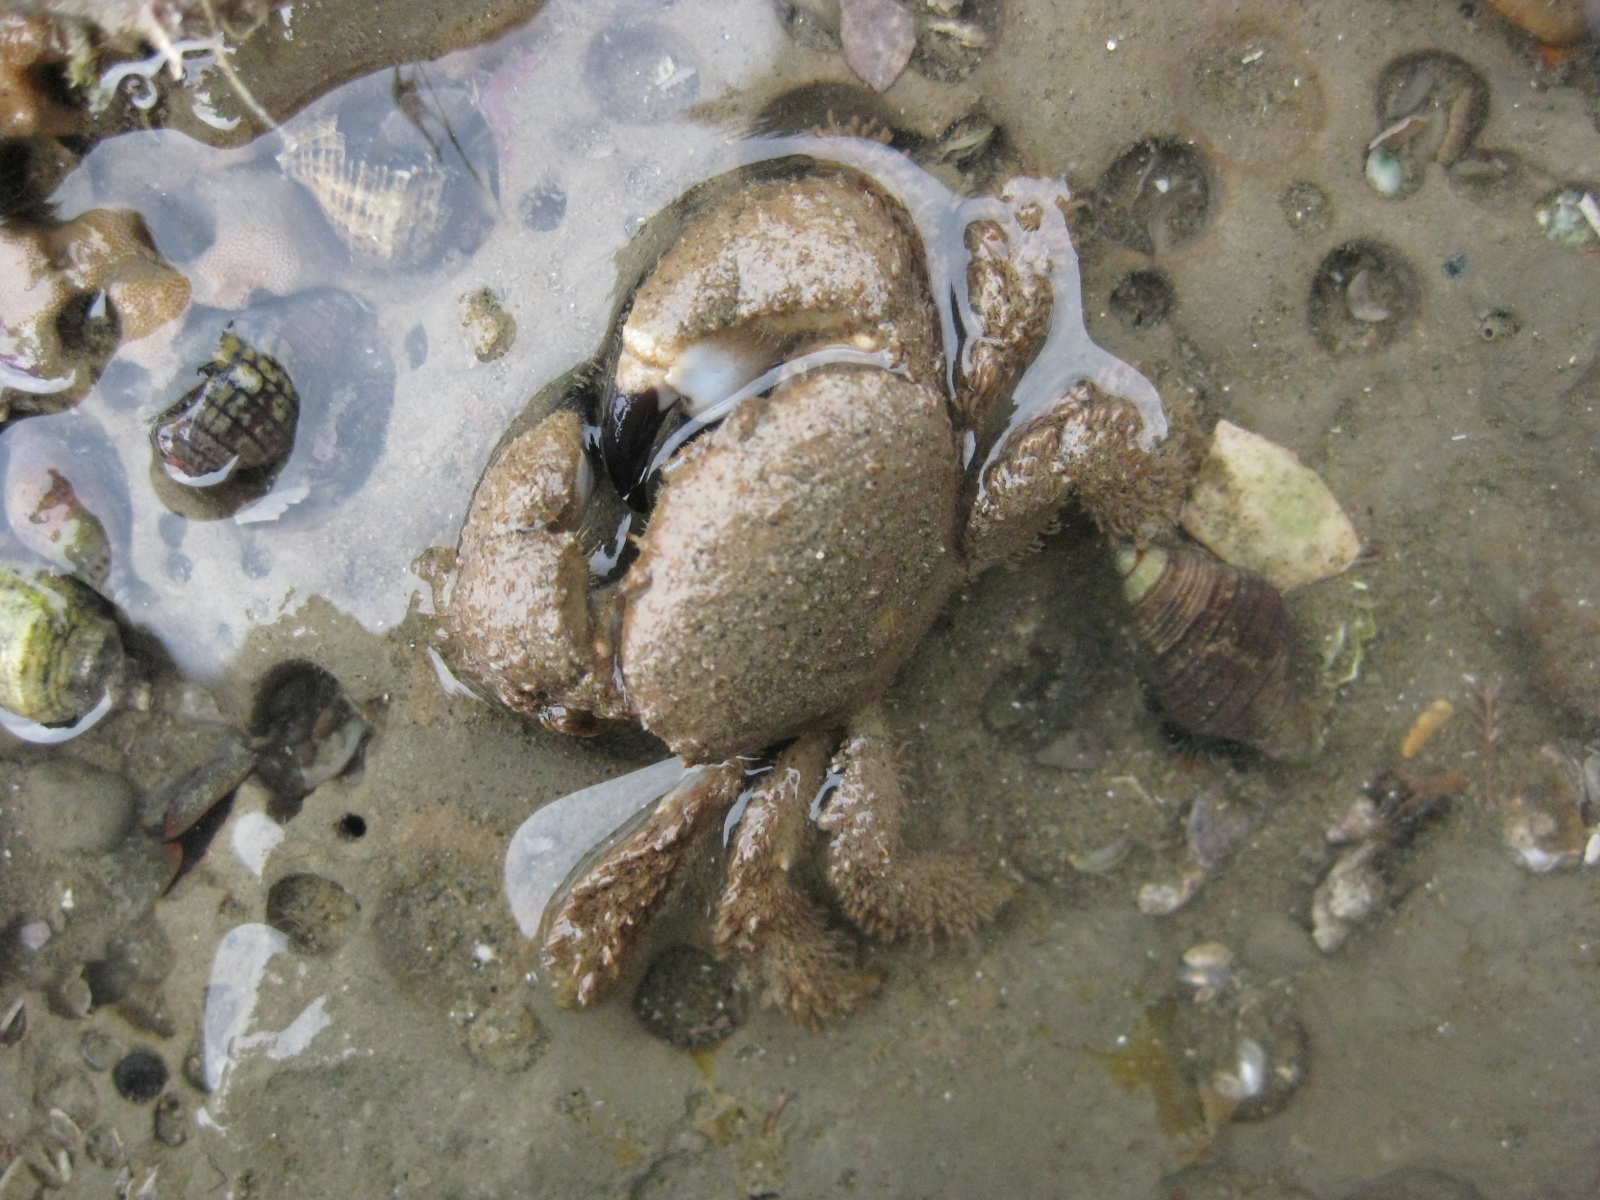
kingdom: Animalia
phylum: Arthropoda
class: Malacostraca
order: Decapoda
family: Pilumnidae
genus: Pilumnus
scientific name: Pilumnus lumpinus
